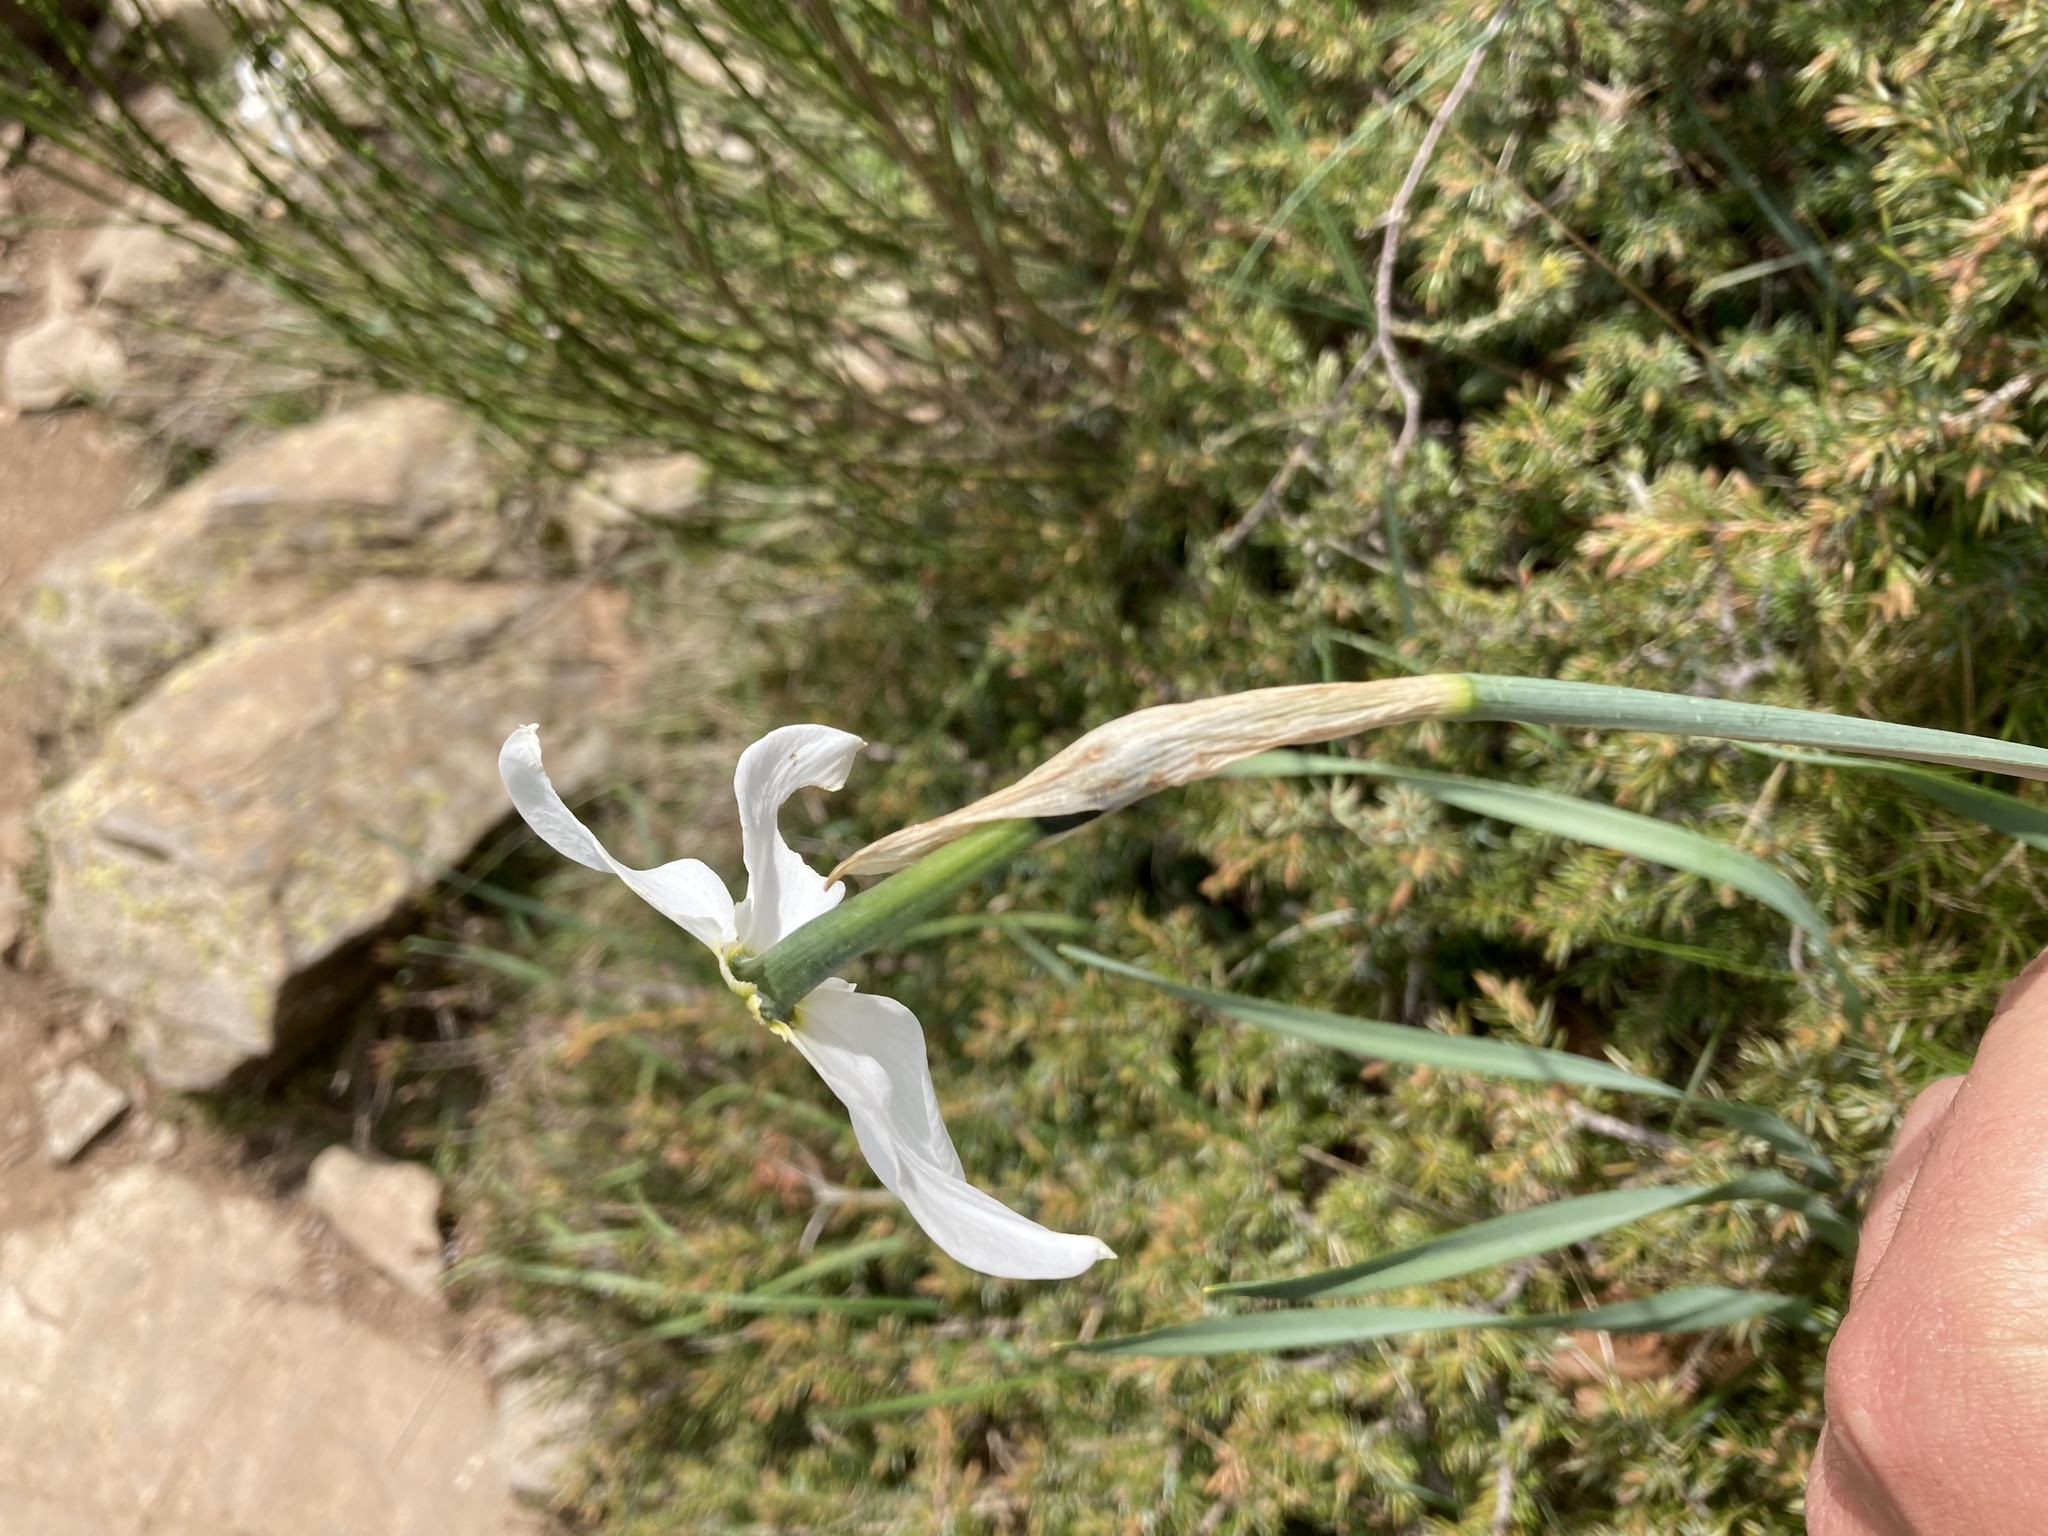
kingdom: Plantae
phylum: Tracheophyta
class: Liliopsida
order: Asparagales
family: Amaryllidaceae
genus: Narcissus
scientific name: Narcissus poeticus
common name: Pheasant's-eye daffodil
